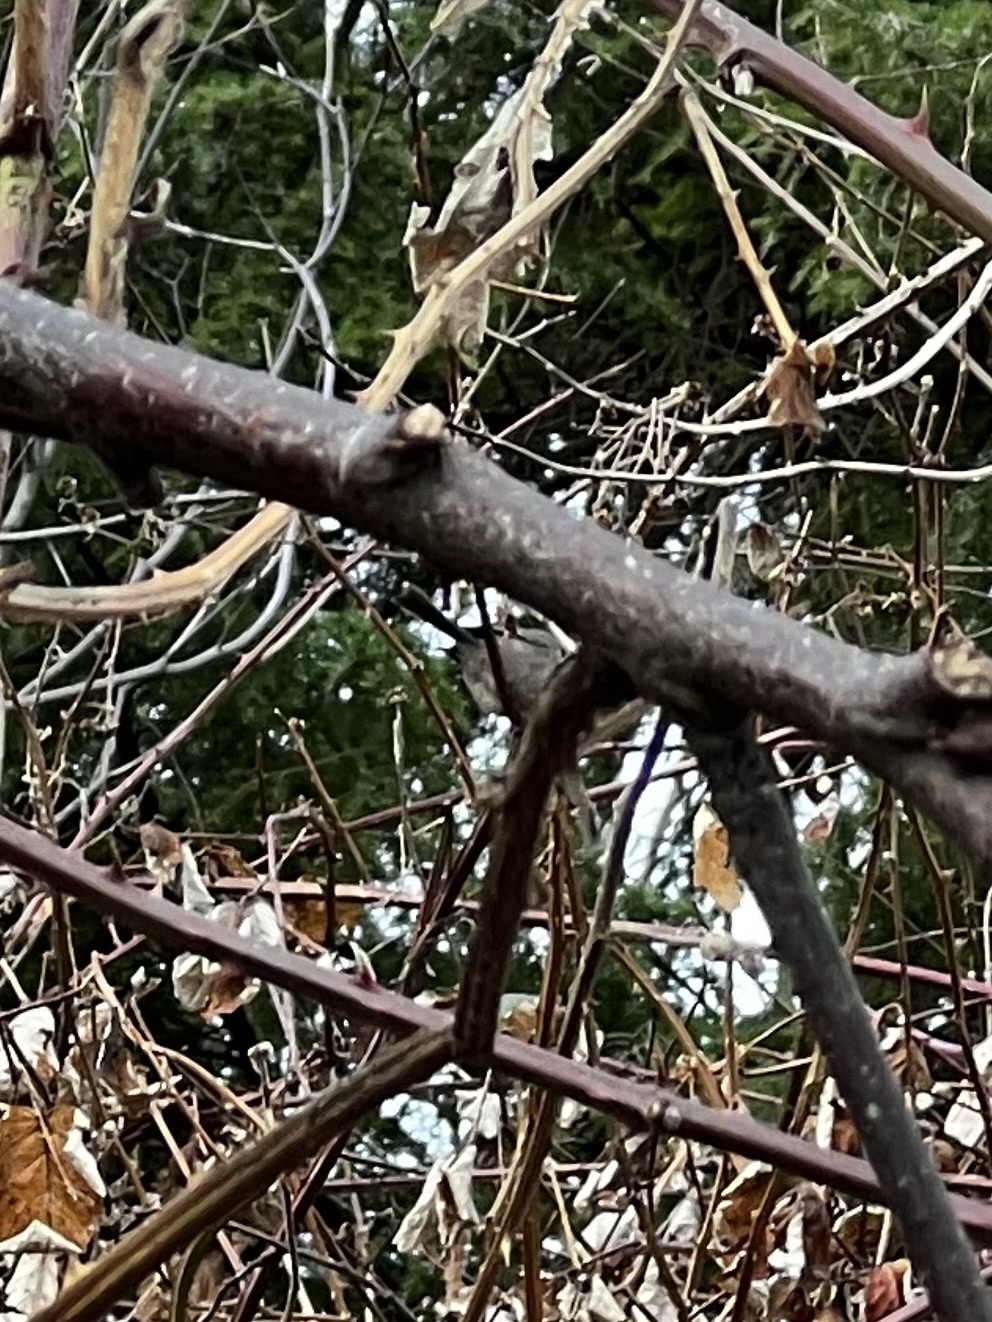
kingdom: Animalia
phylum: Chordata
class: Aves
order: Passeriformes
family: Aegithalidae
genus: Psaltriparus
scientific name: Psaltriparus minimus
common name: American bushtit
